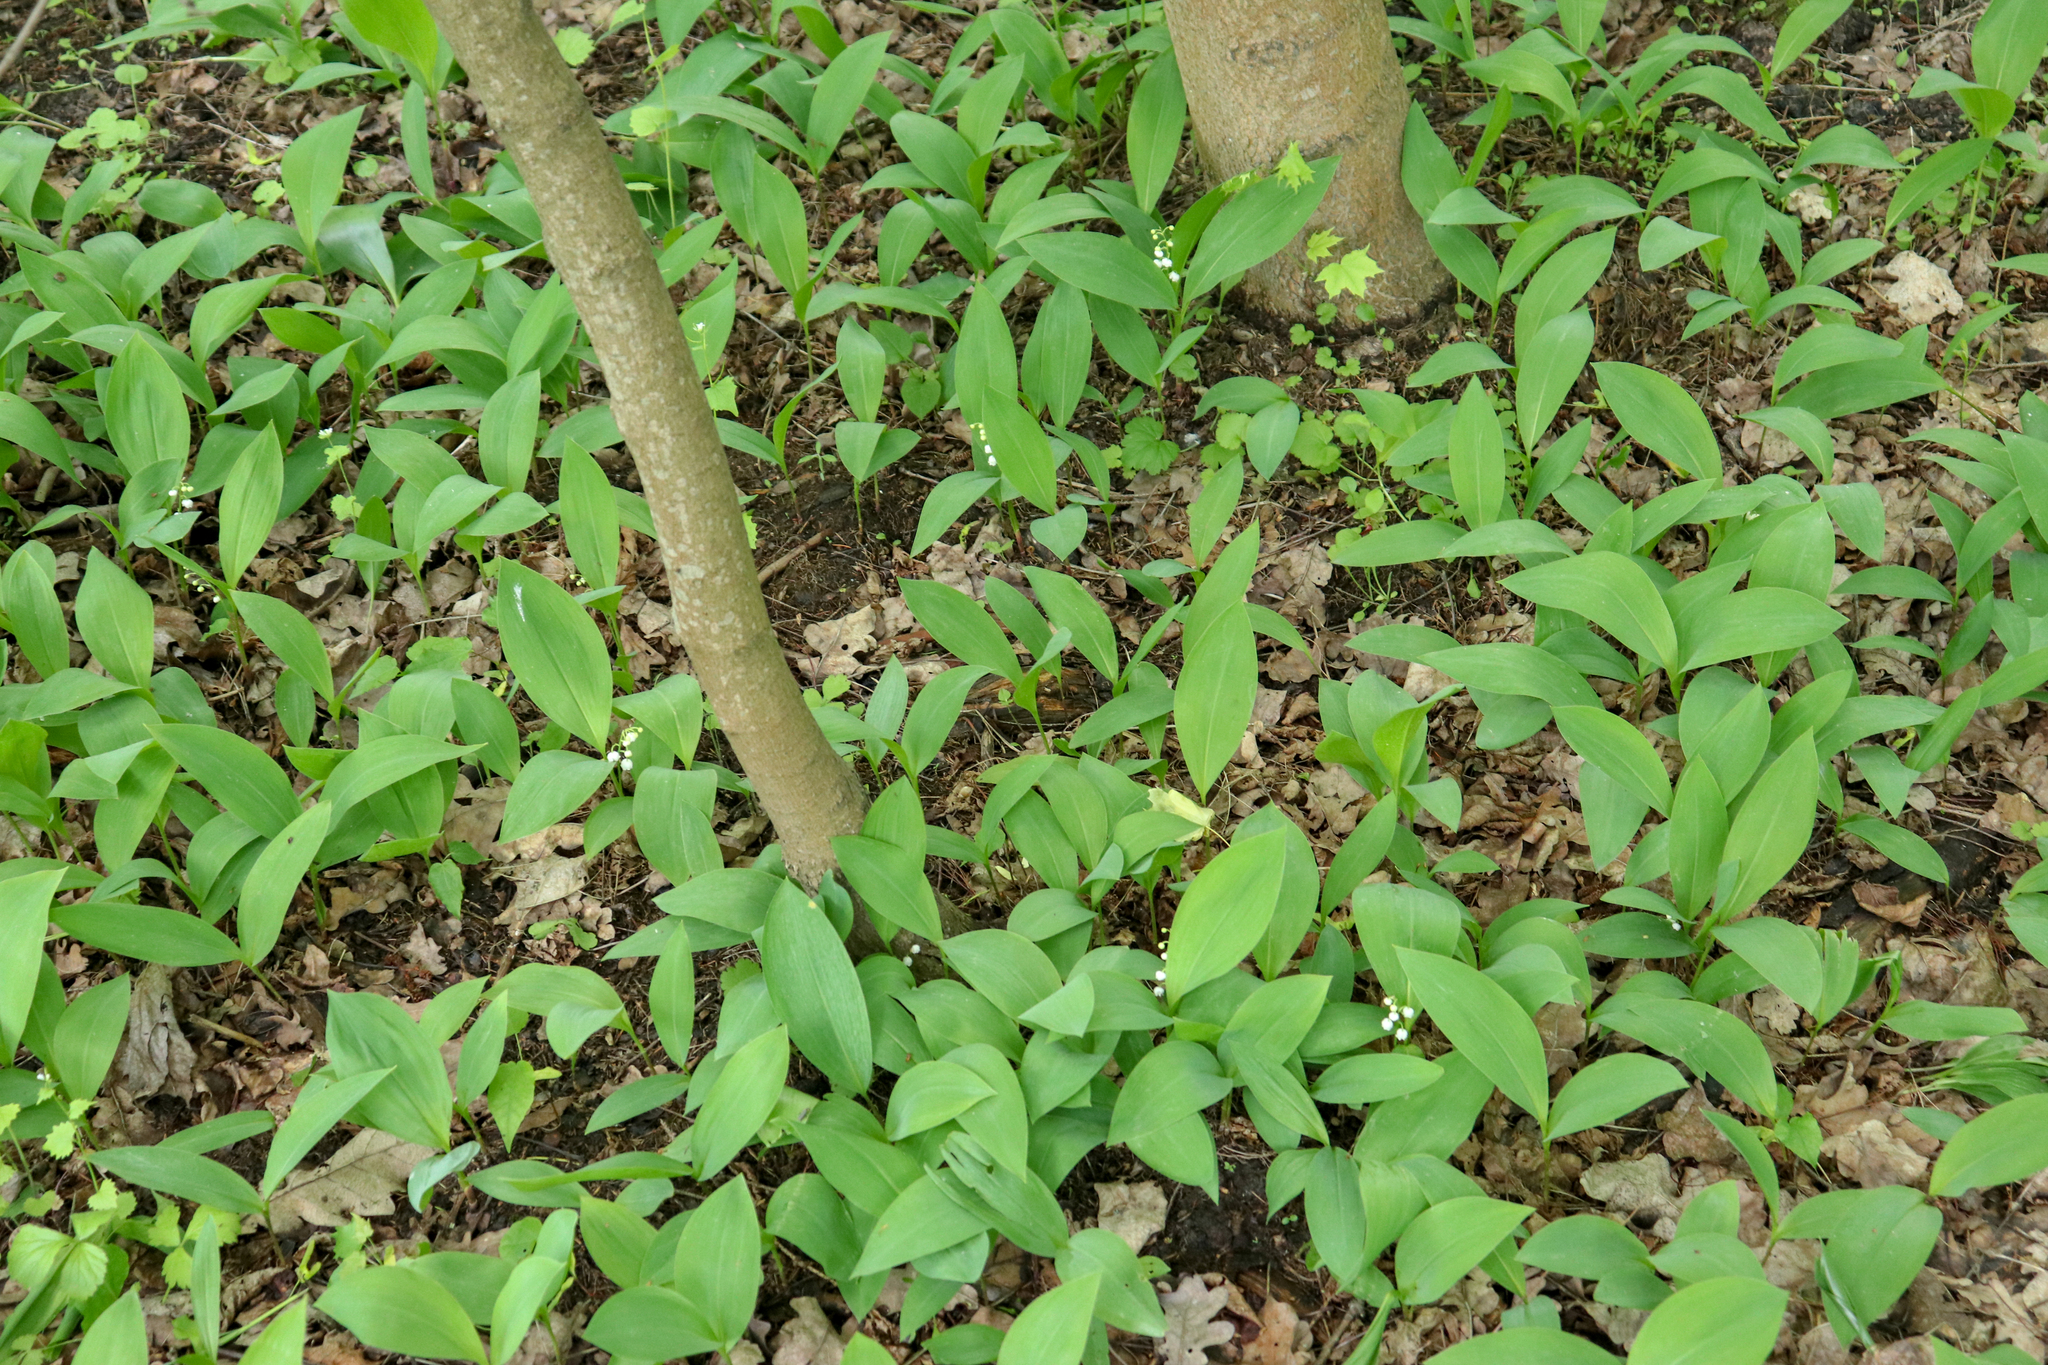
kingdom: Plantae
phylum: Tracheophyta
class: Liliopsida
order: Asparagales
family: Asparagaceae
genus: Convallaria
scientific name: Convallaria majalis
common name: Lily-of-the-valley
